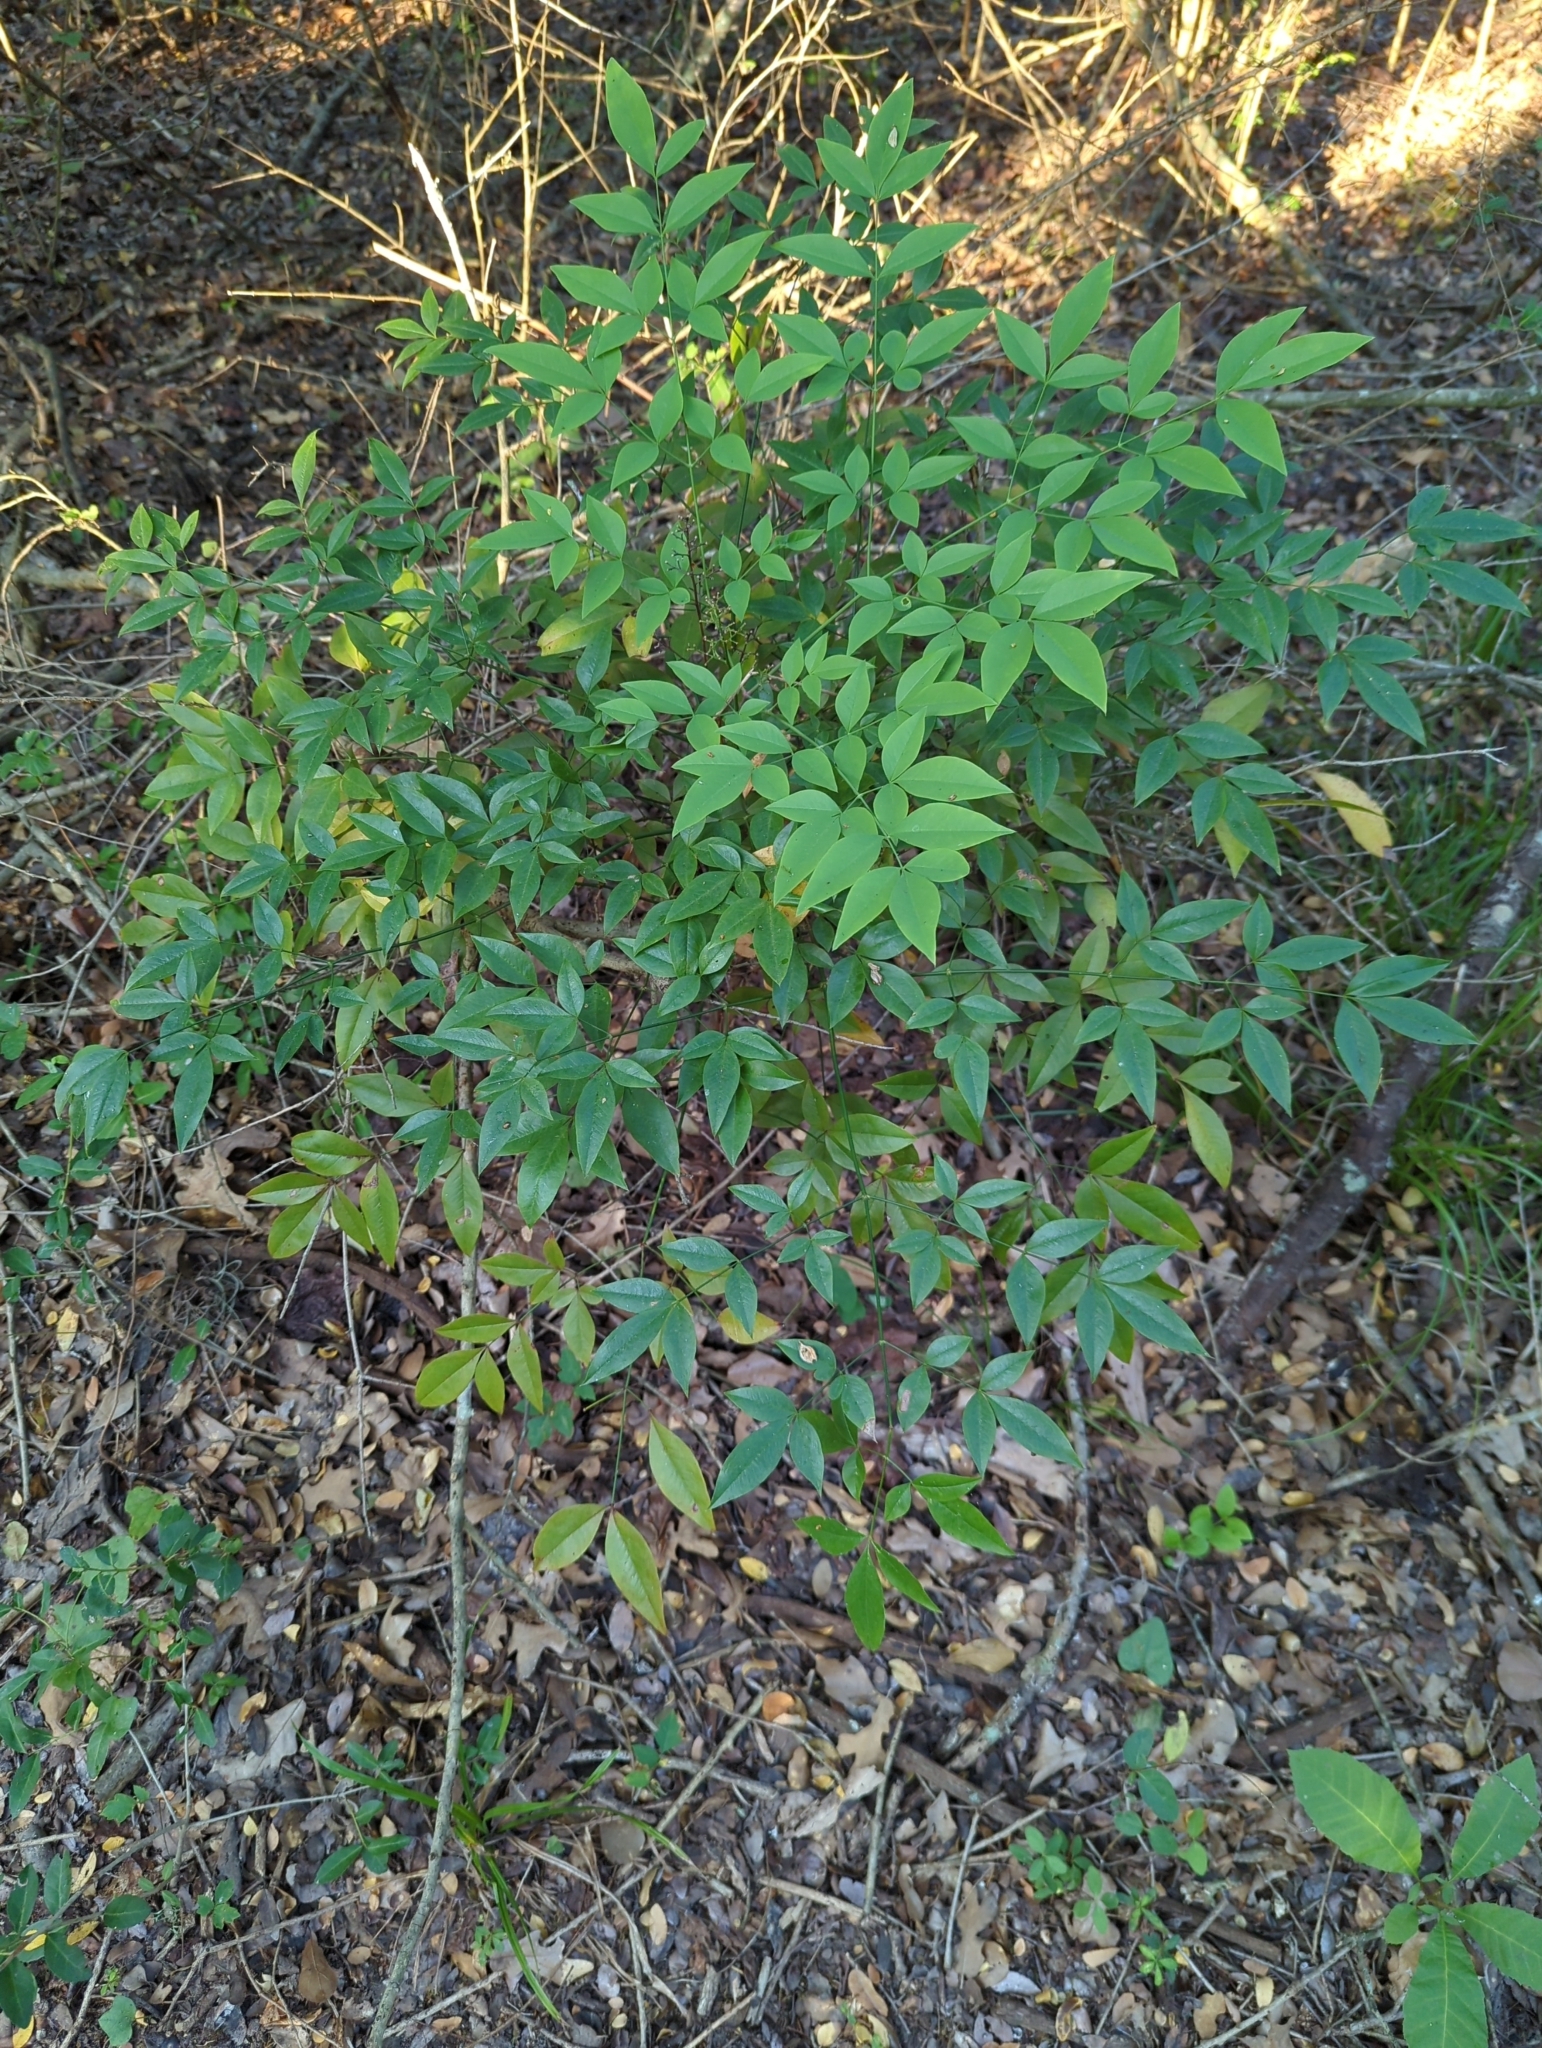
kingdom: Plantae
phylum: Tracheophyta
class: Magnoliopsida
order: Ranunculales
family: Berberidaceae
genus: Nandina
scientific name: Nandina domestica
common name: Sacred bamboo
